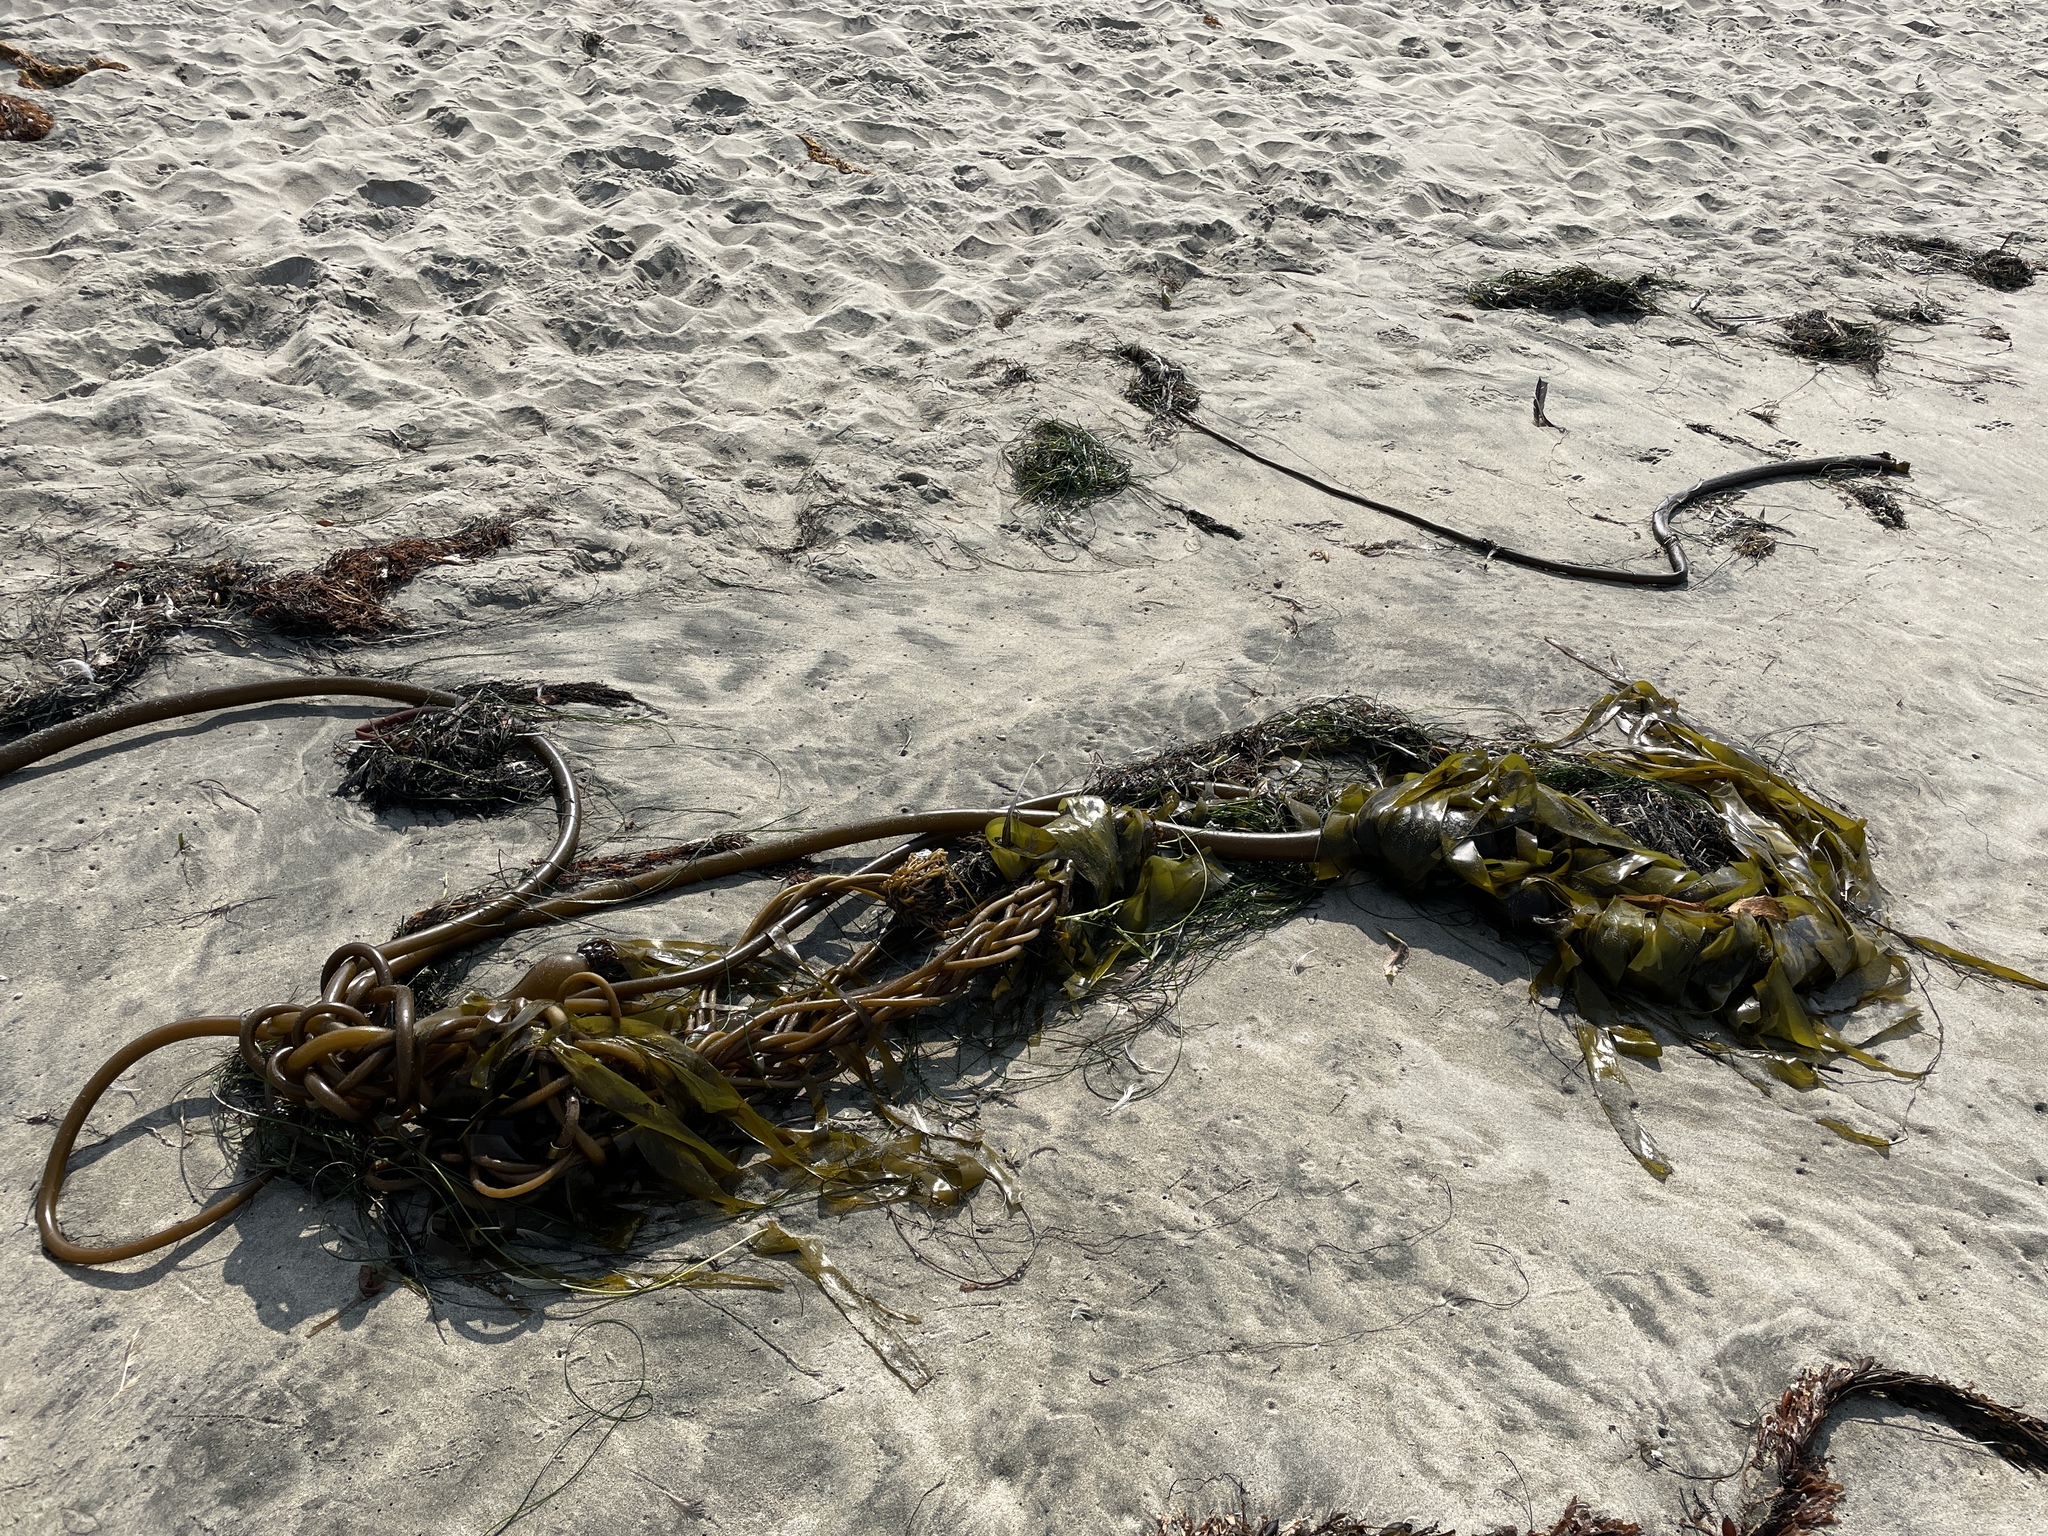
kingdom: Chromista
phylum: Ochrophyta
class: Phaeophyceae
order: Laminariales
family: Laminariaceae
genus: Nereocystis
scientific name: Nereocystis luetkeana
